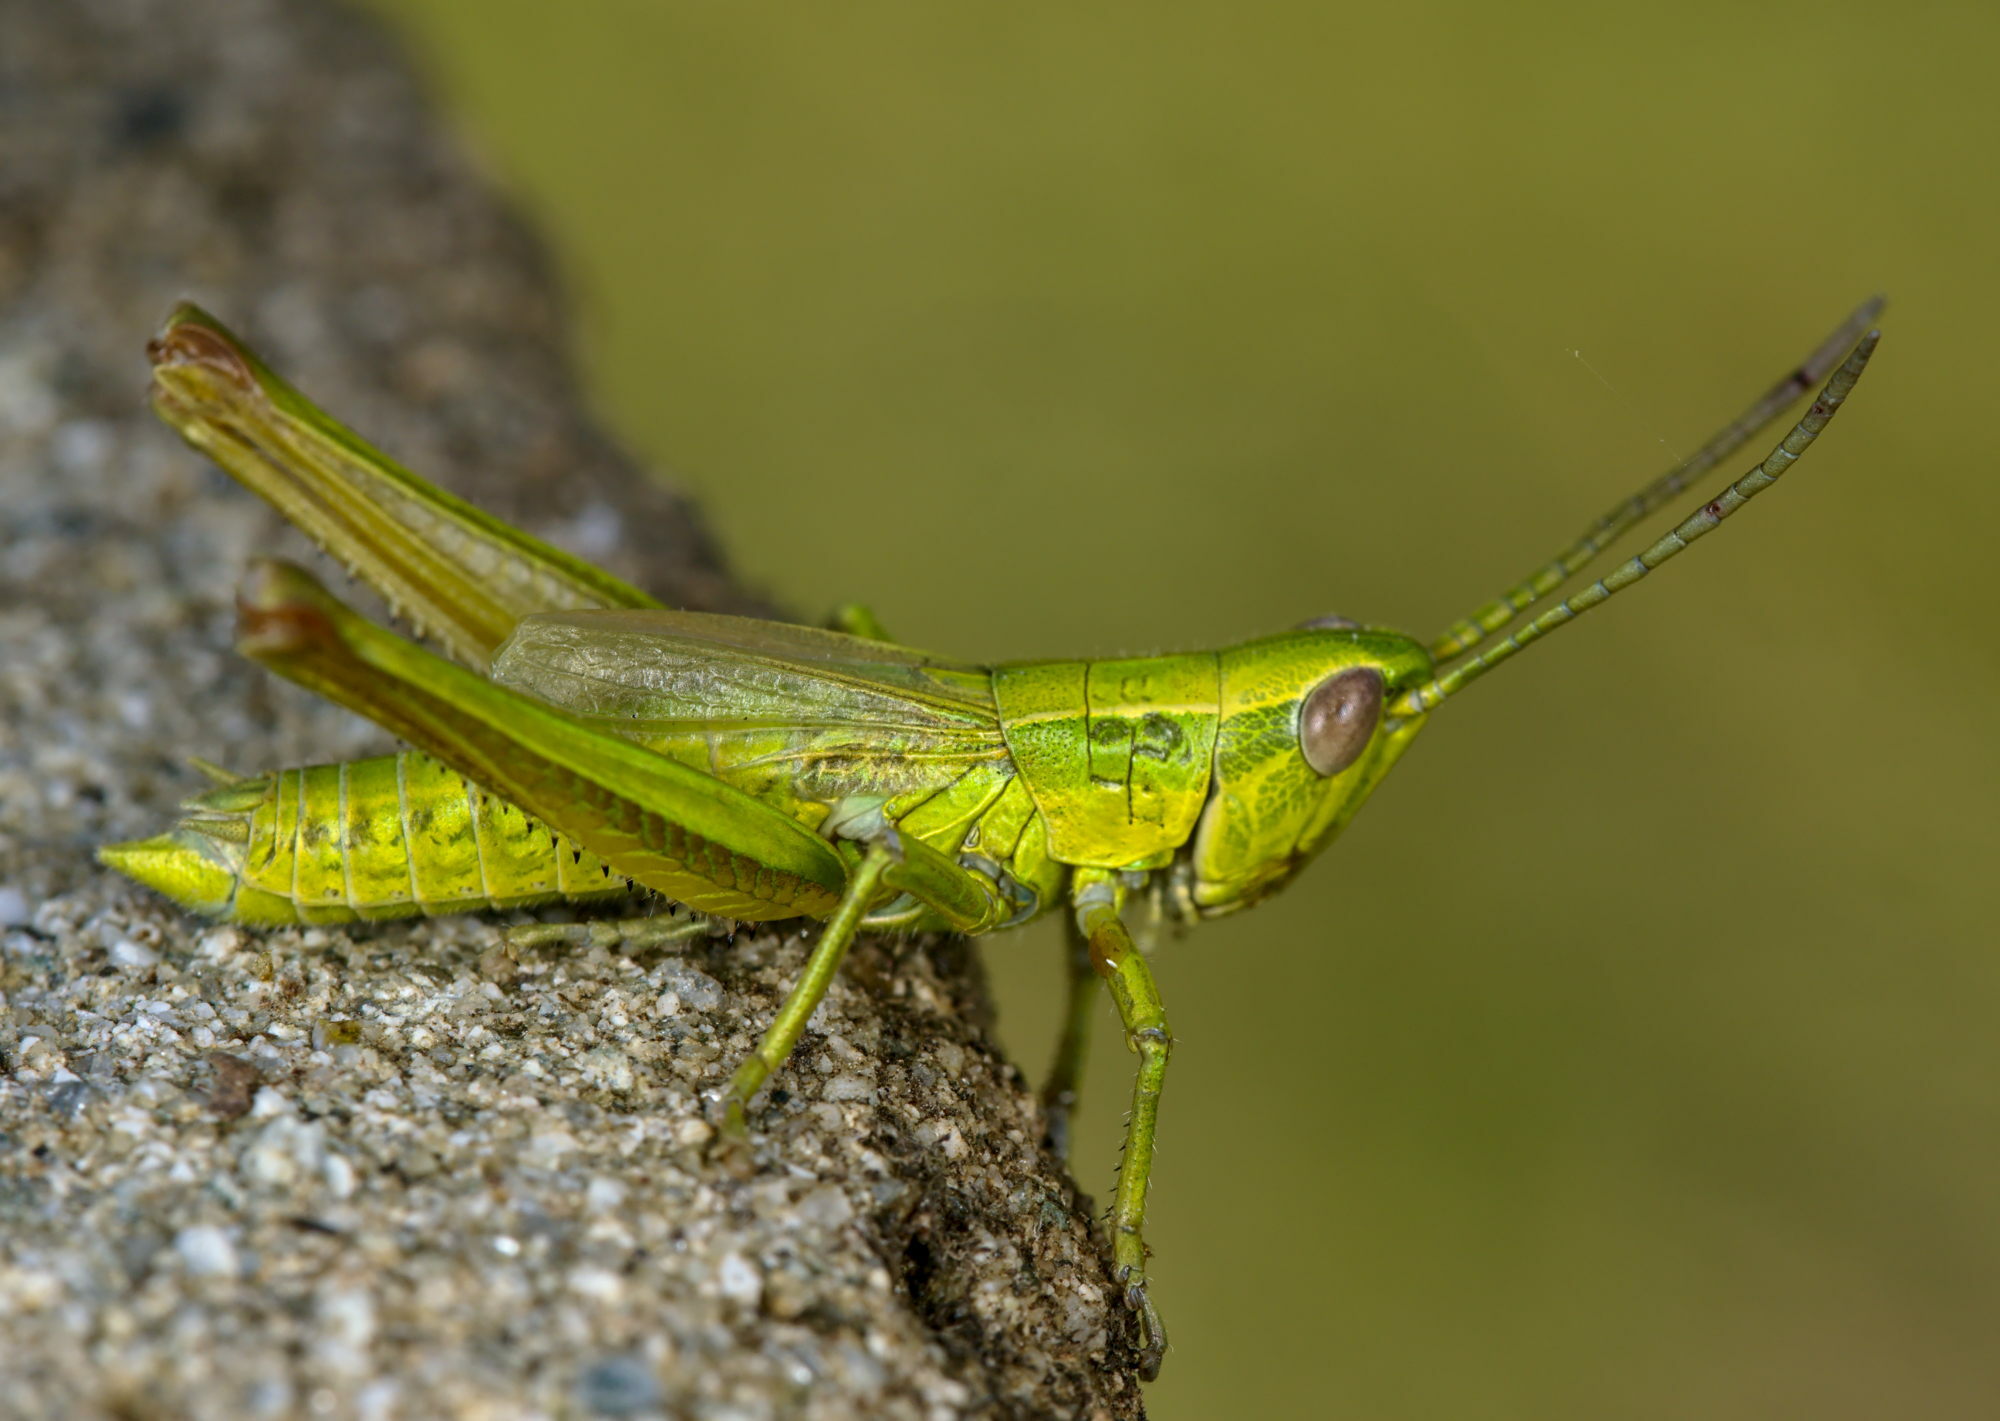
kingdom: Animalia
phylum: Arthropoda
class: Insecta
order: Orthoptera
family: Acrididae
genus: Euthystira
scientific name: Euthystira brachyptera
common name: Small gold grasshopper
